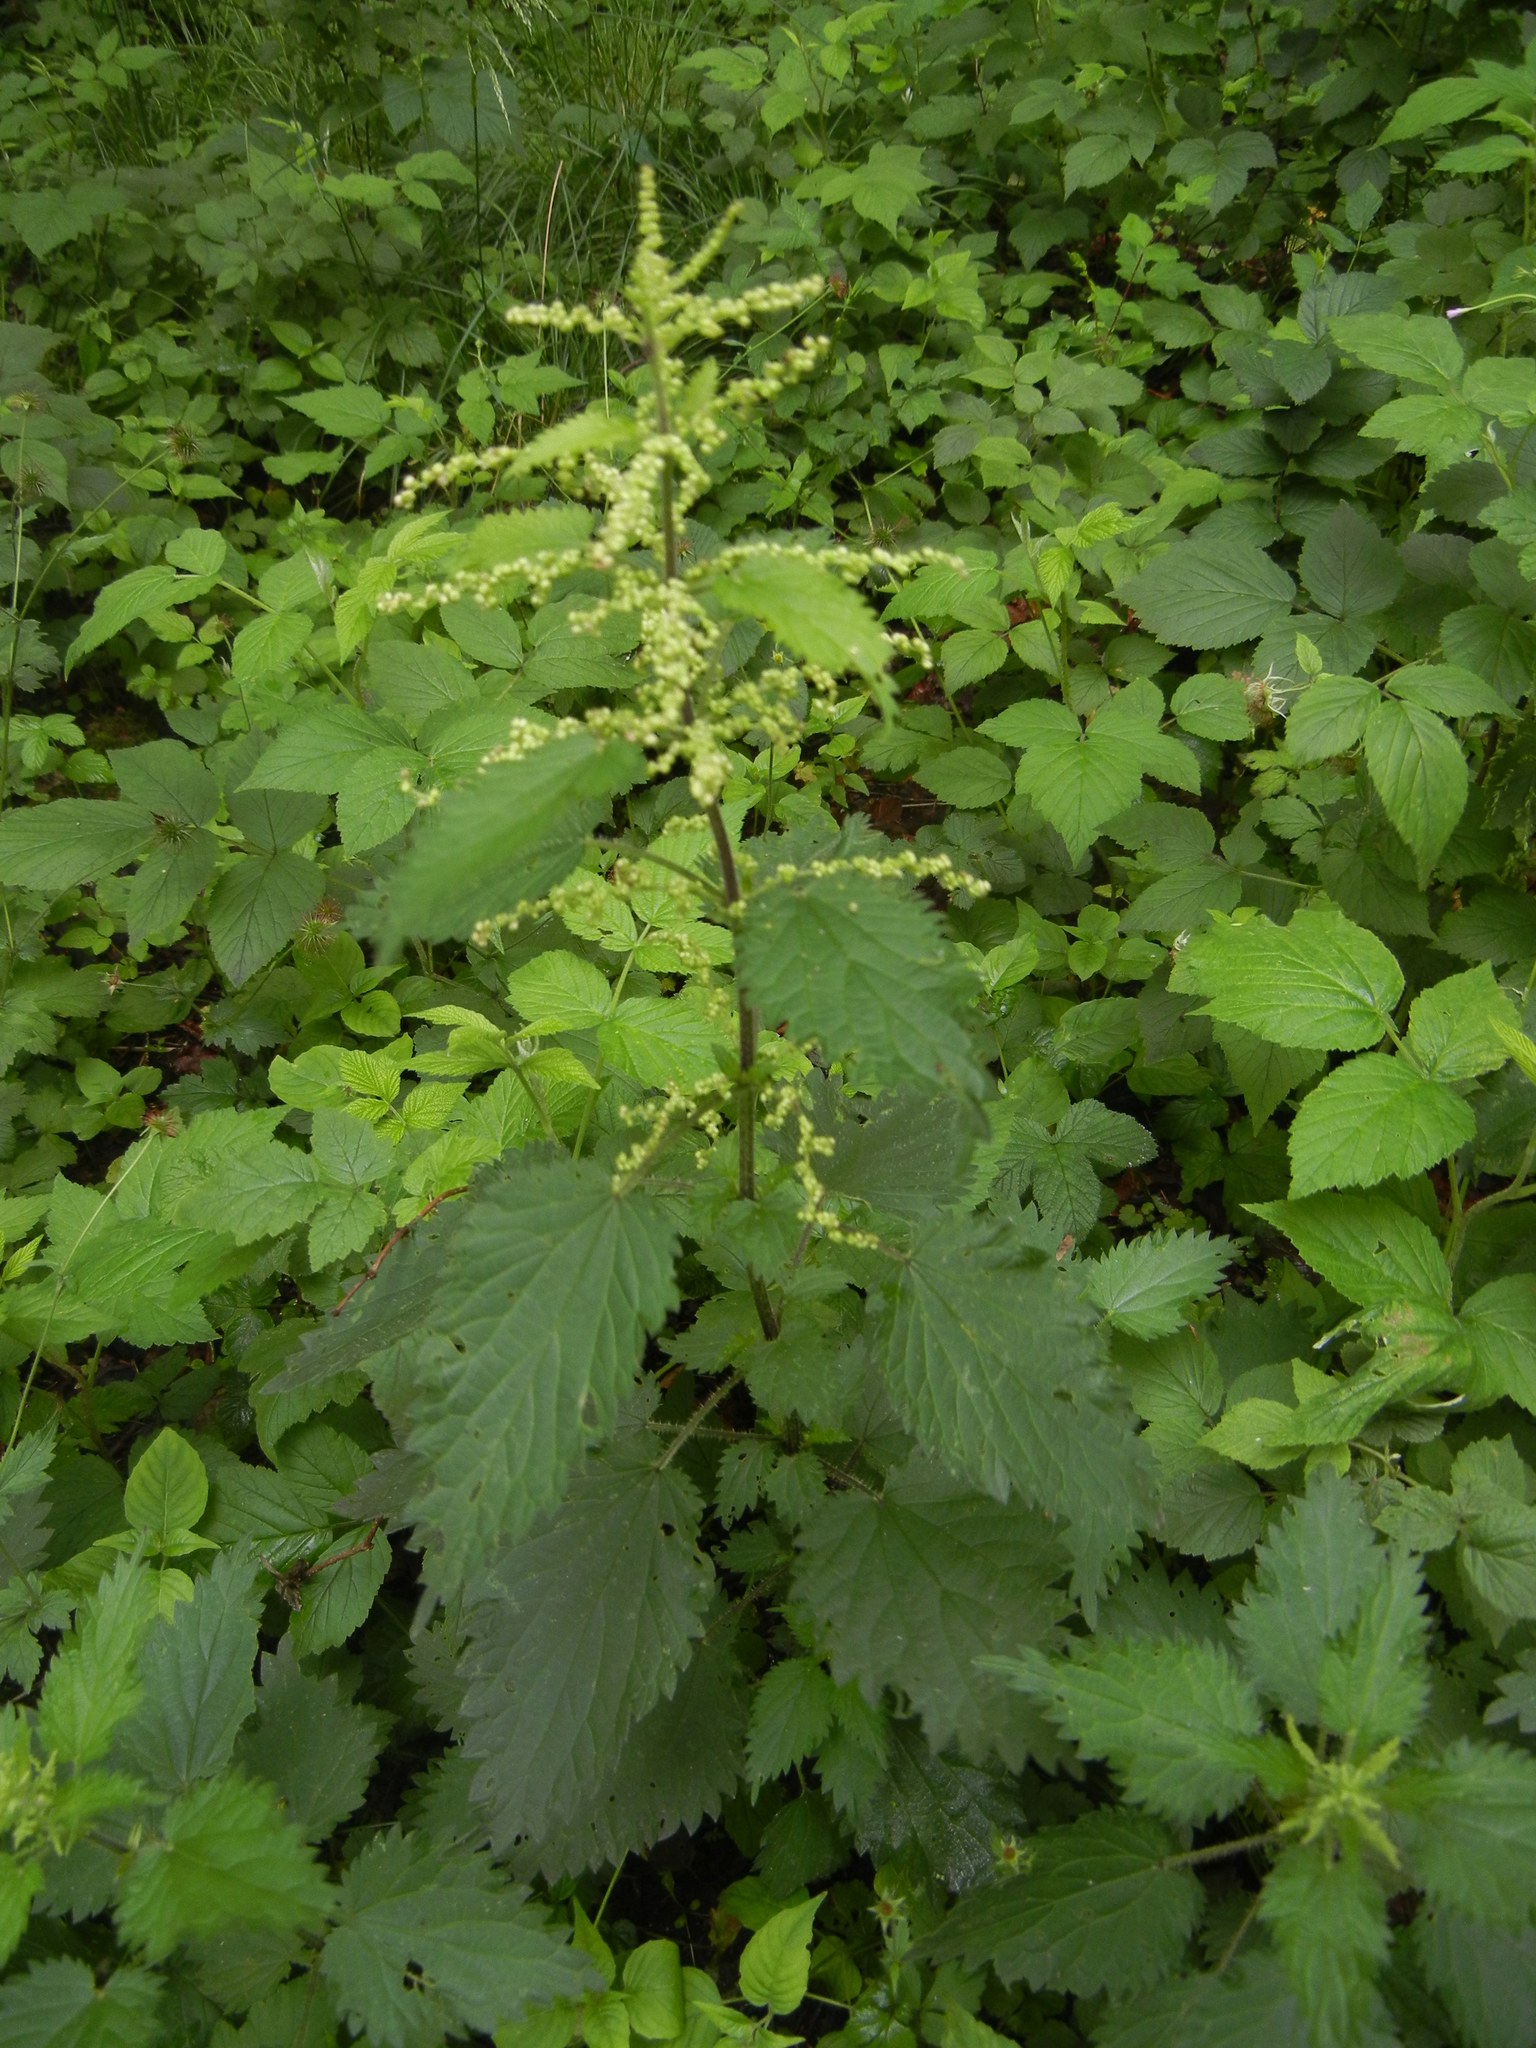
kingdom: Plantae
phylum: Tracheophyta
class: Magnoliopsida
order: Rosales
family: Urticaceae
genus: Urtica
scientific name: Urtica dioica
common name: Common nettle
